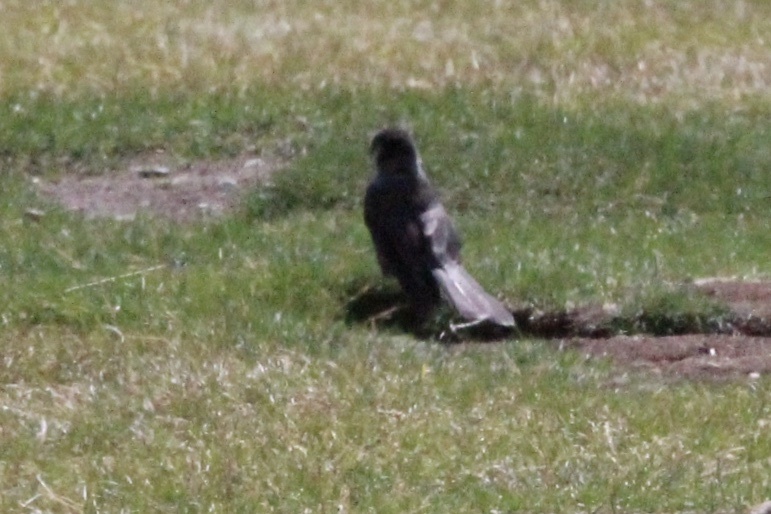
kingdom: Animalia
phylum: Chordata
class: Aves
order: Passeriformes
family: Corvidae
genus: Perisoreus
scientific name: Perisoreus canadensis
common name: Gray jay
